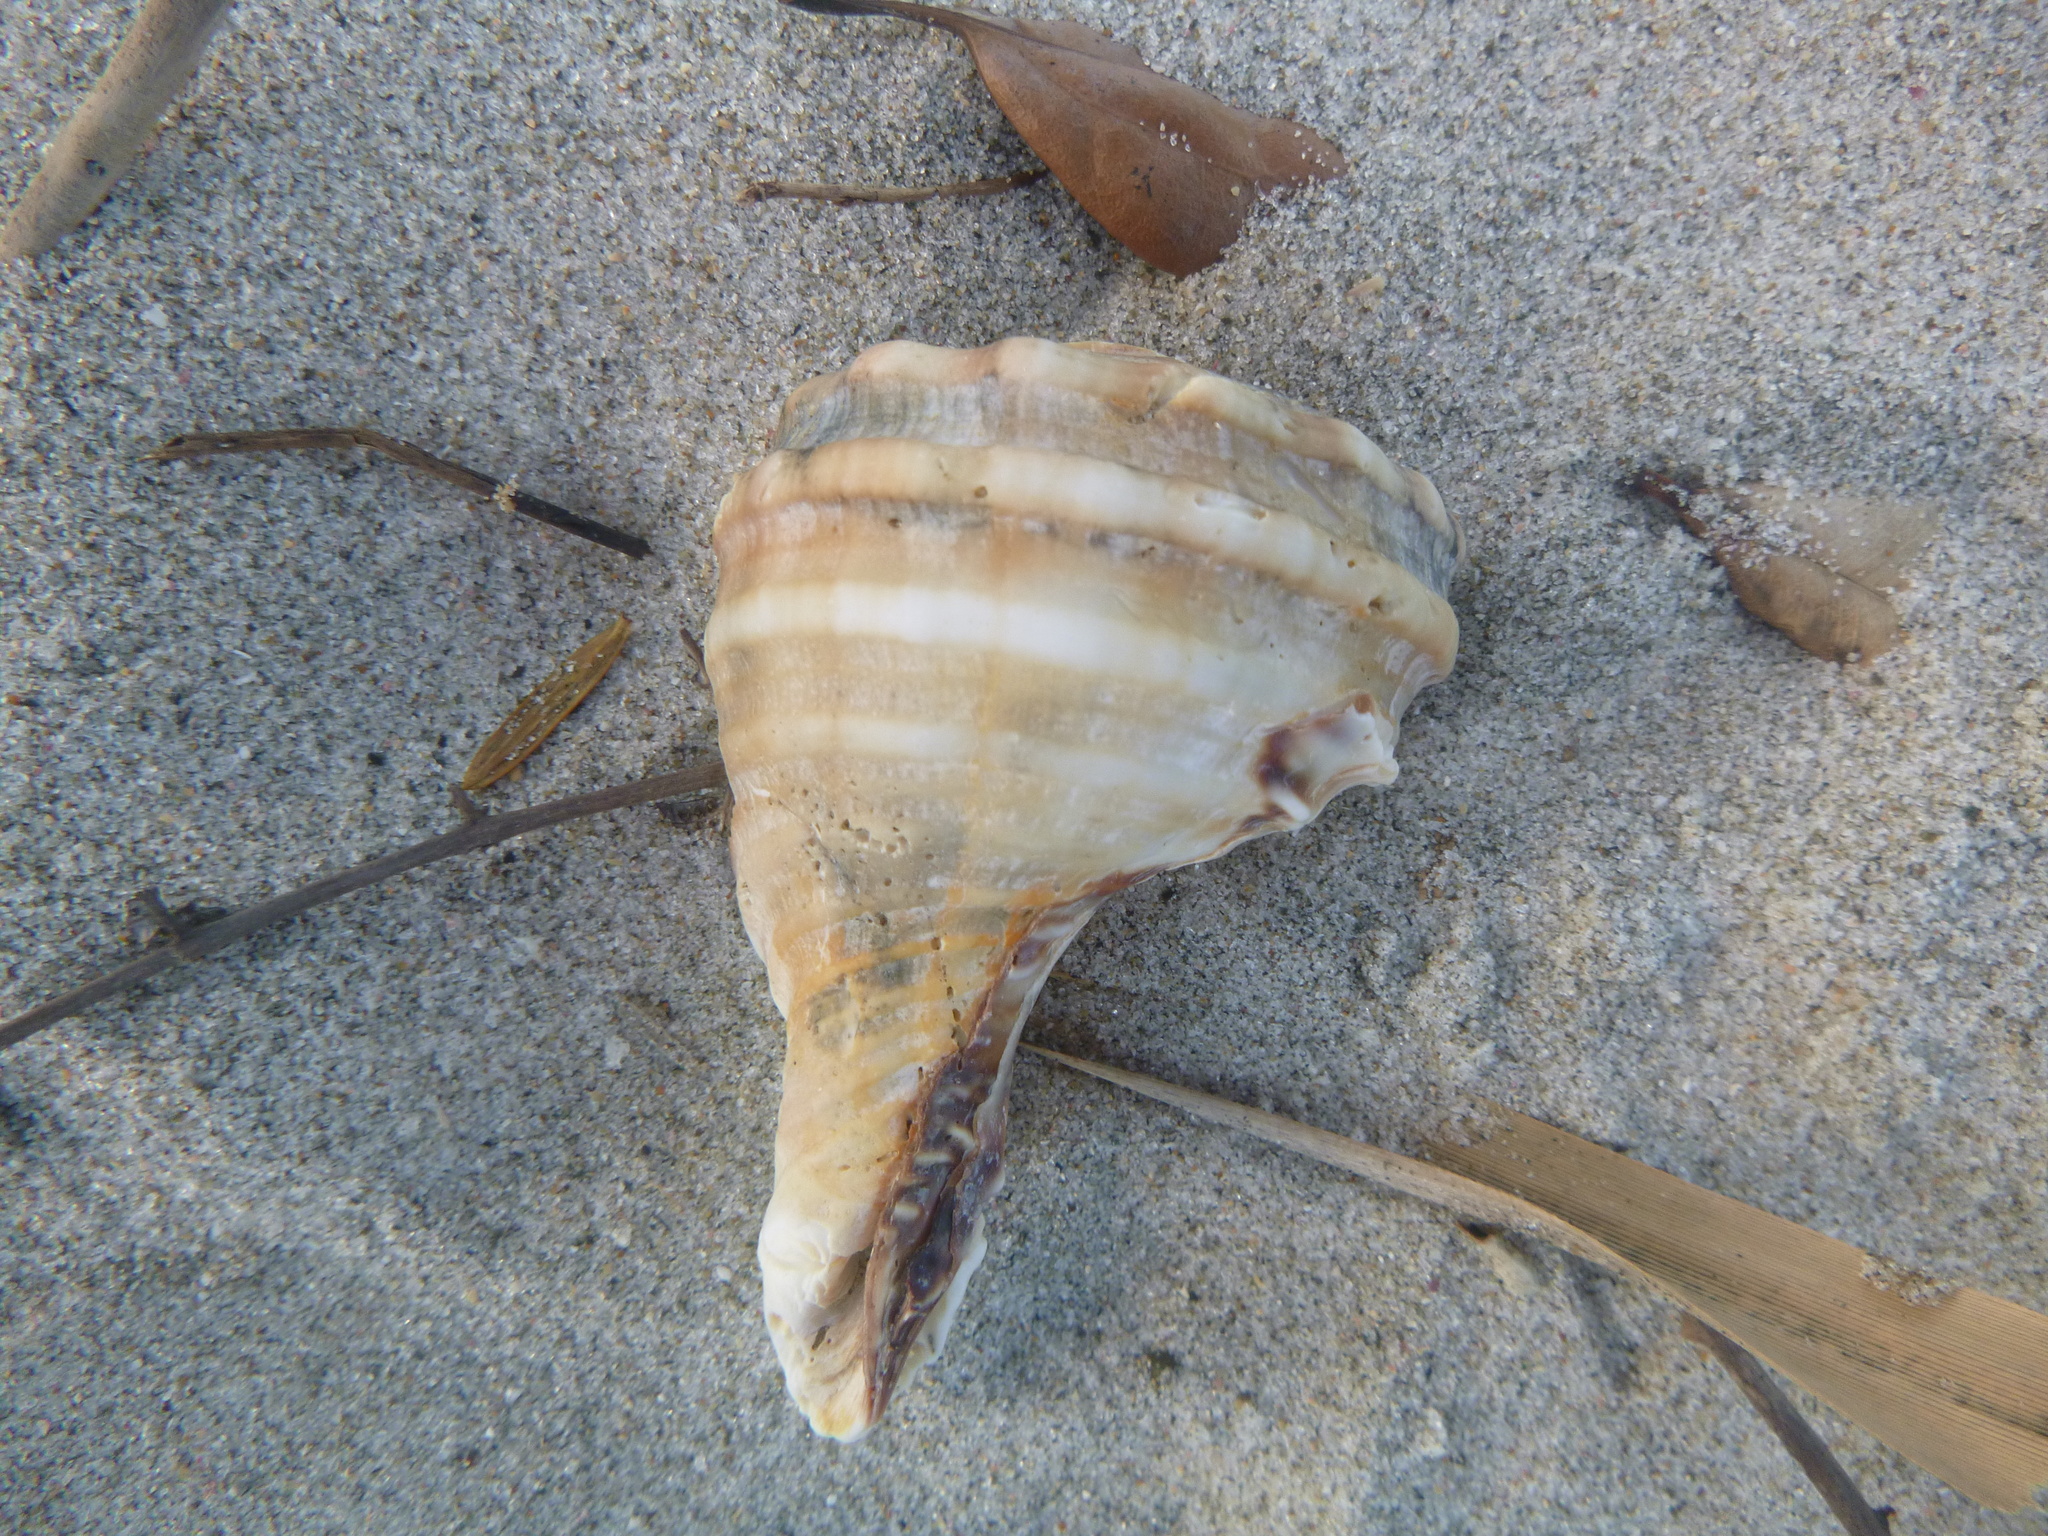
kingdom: Animalia
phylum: Mollusca
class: Gastropoda
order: Littorinimorpha
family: Cymatiidae
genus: Monoplex
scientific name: Monoplex parthenopeus
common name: Giant triton
